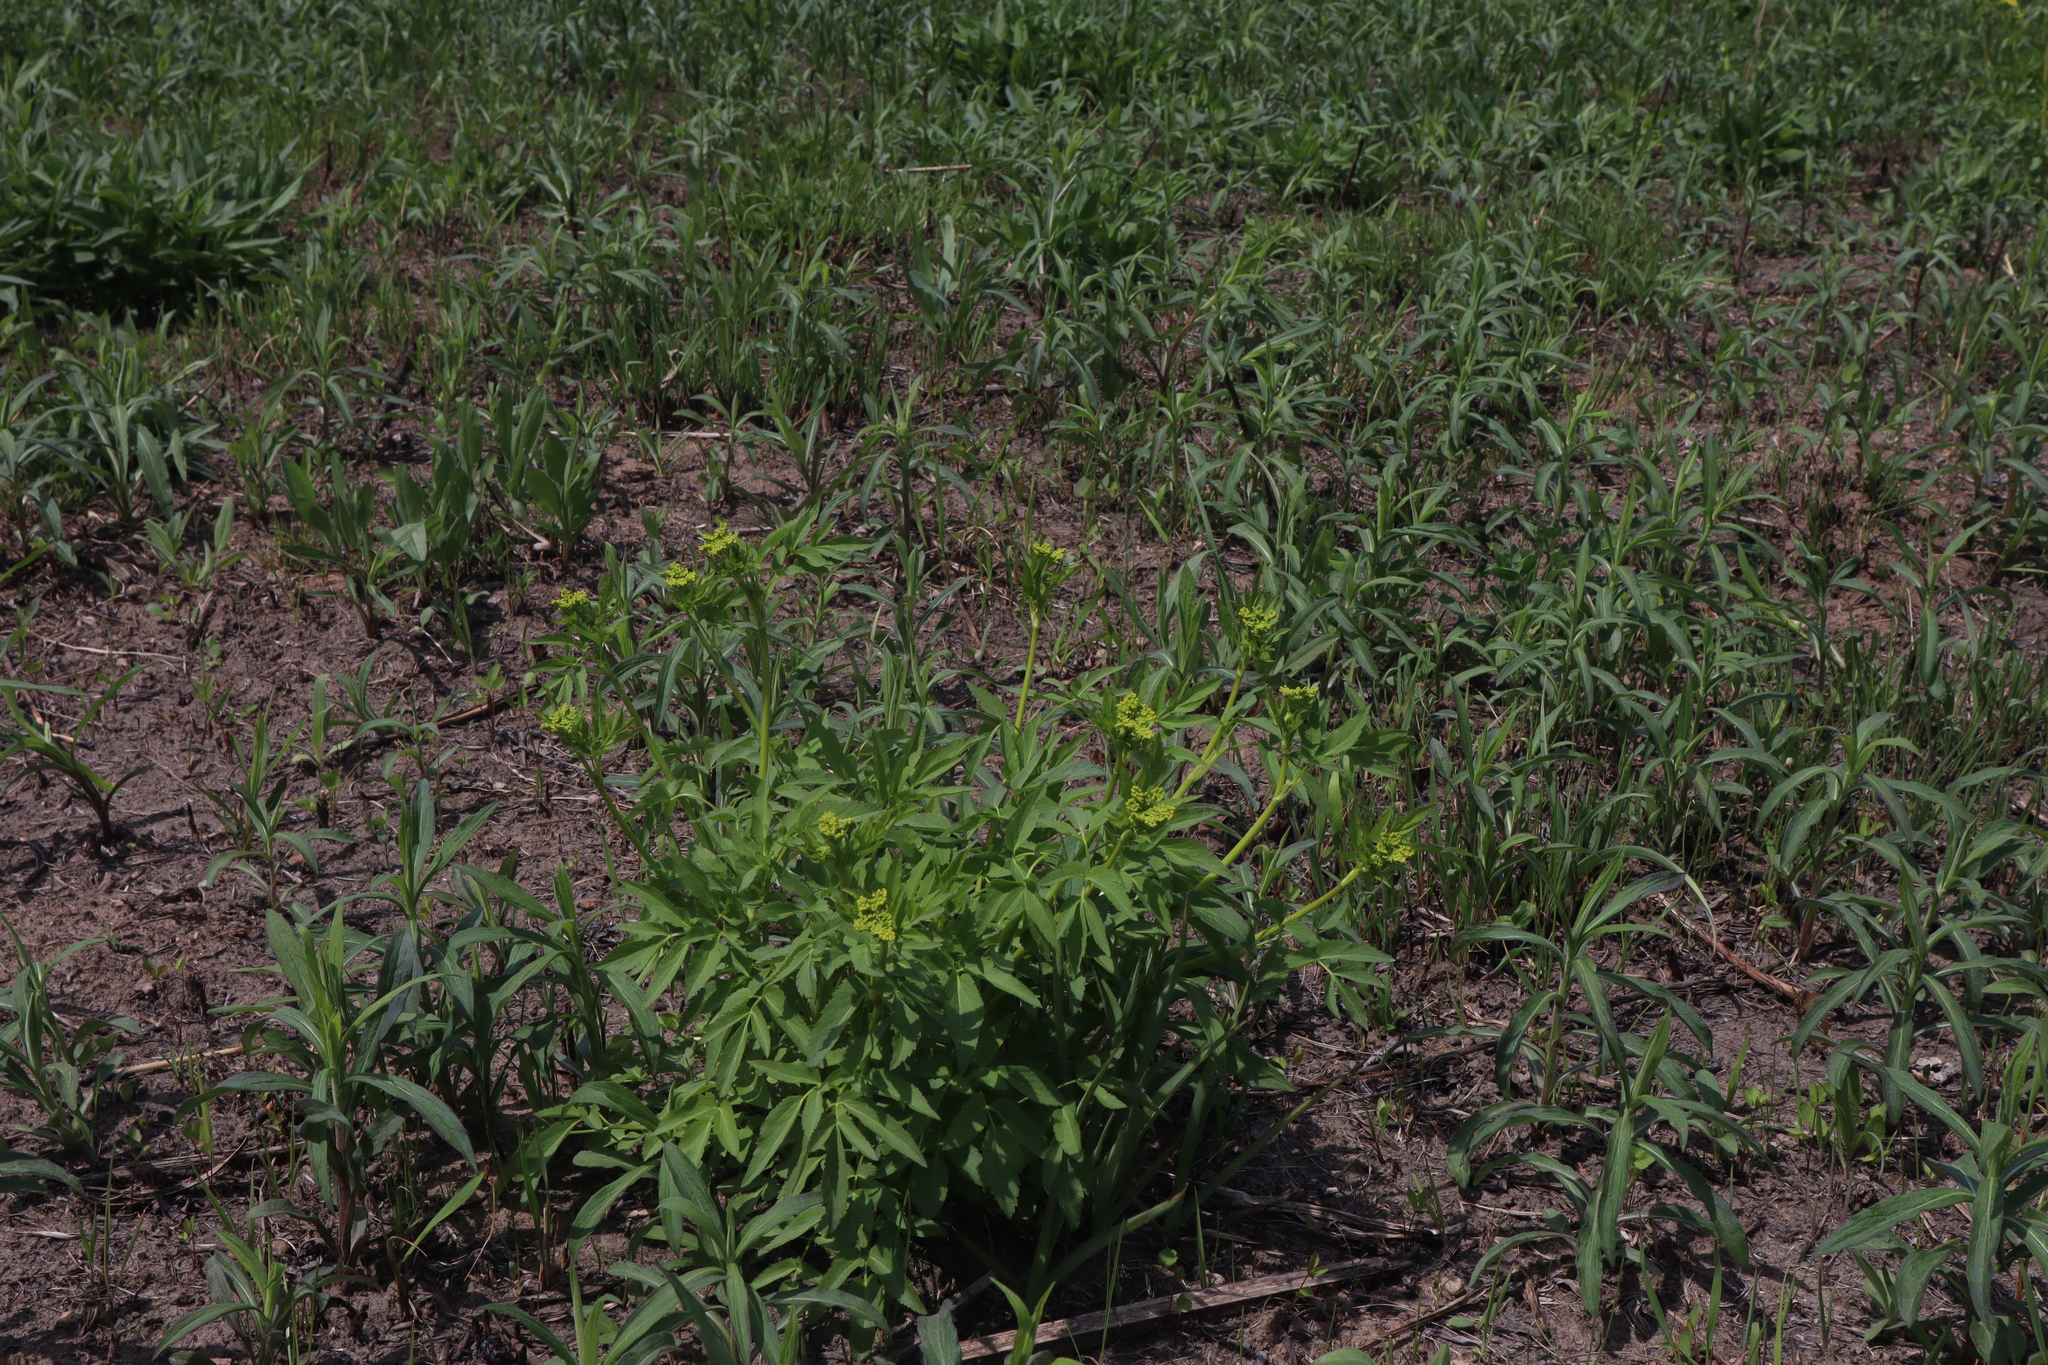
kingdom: Plantae
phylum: Tracheophyta
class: Magnoliopsida
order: Apiales
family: Apiaceae
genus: Zizia
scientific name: Zizia aurea
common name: Golden alexanders
